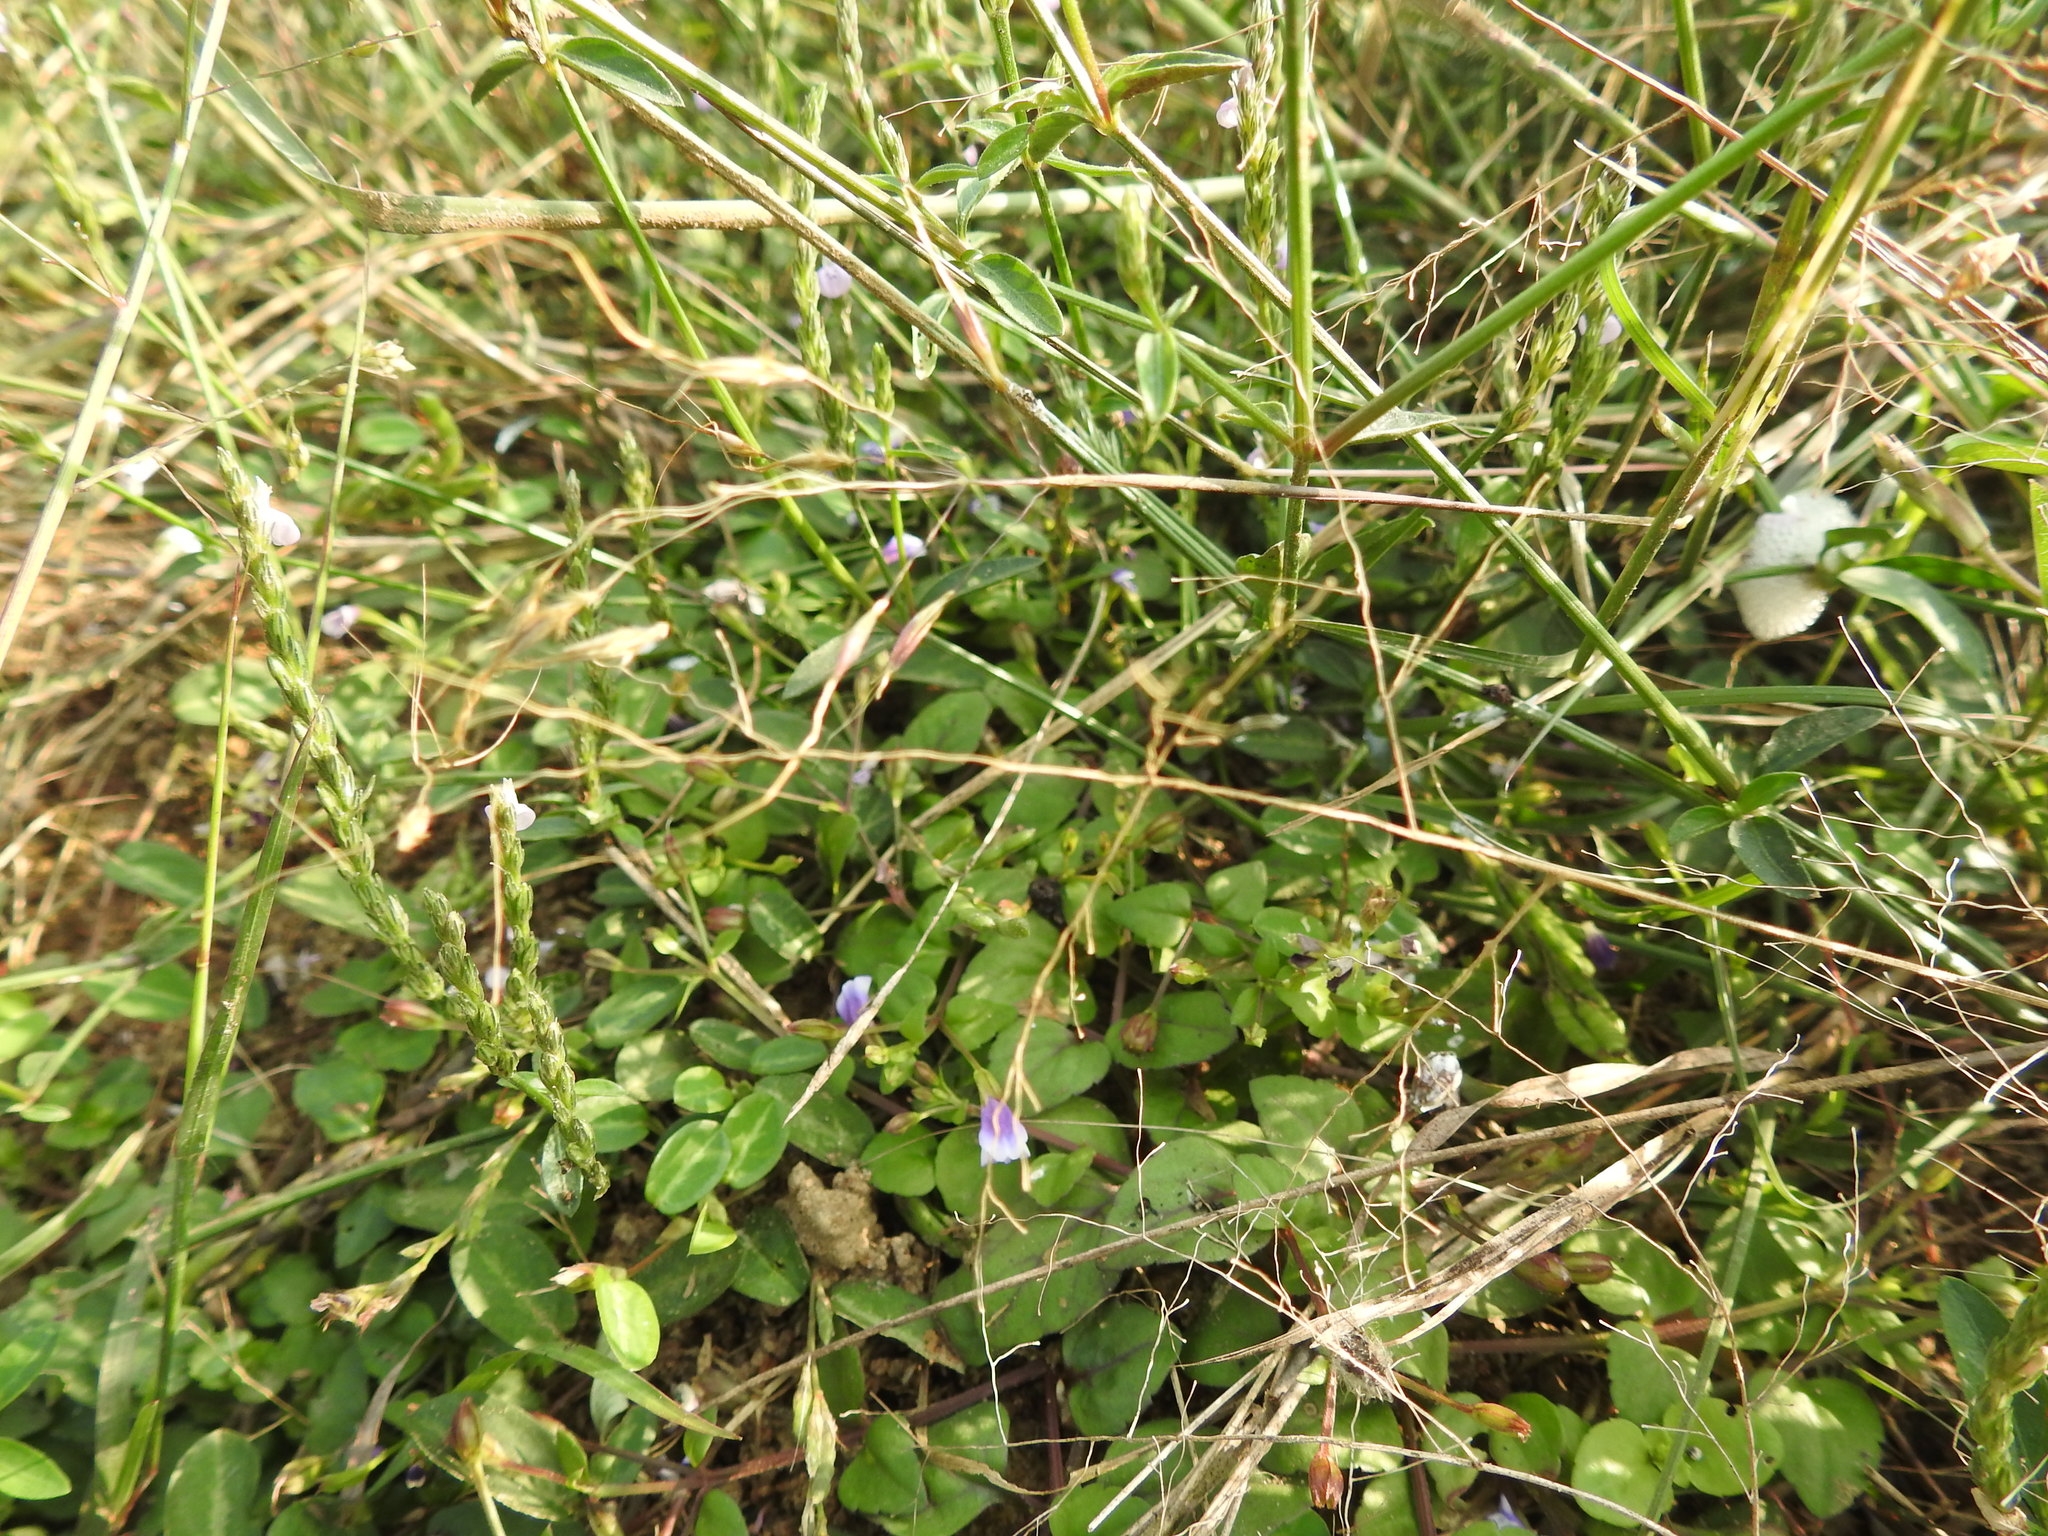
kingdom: Plantae
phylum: Tracheophyta
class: Magnoliopsida
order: Lamiales
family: Linderniaceae
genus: Torenia
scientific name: Torenia crustacea
